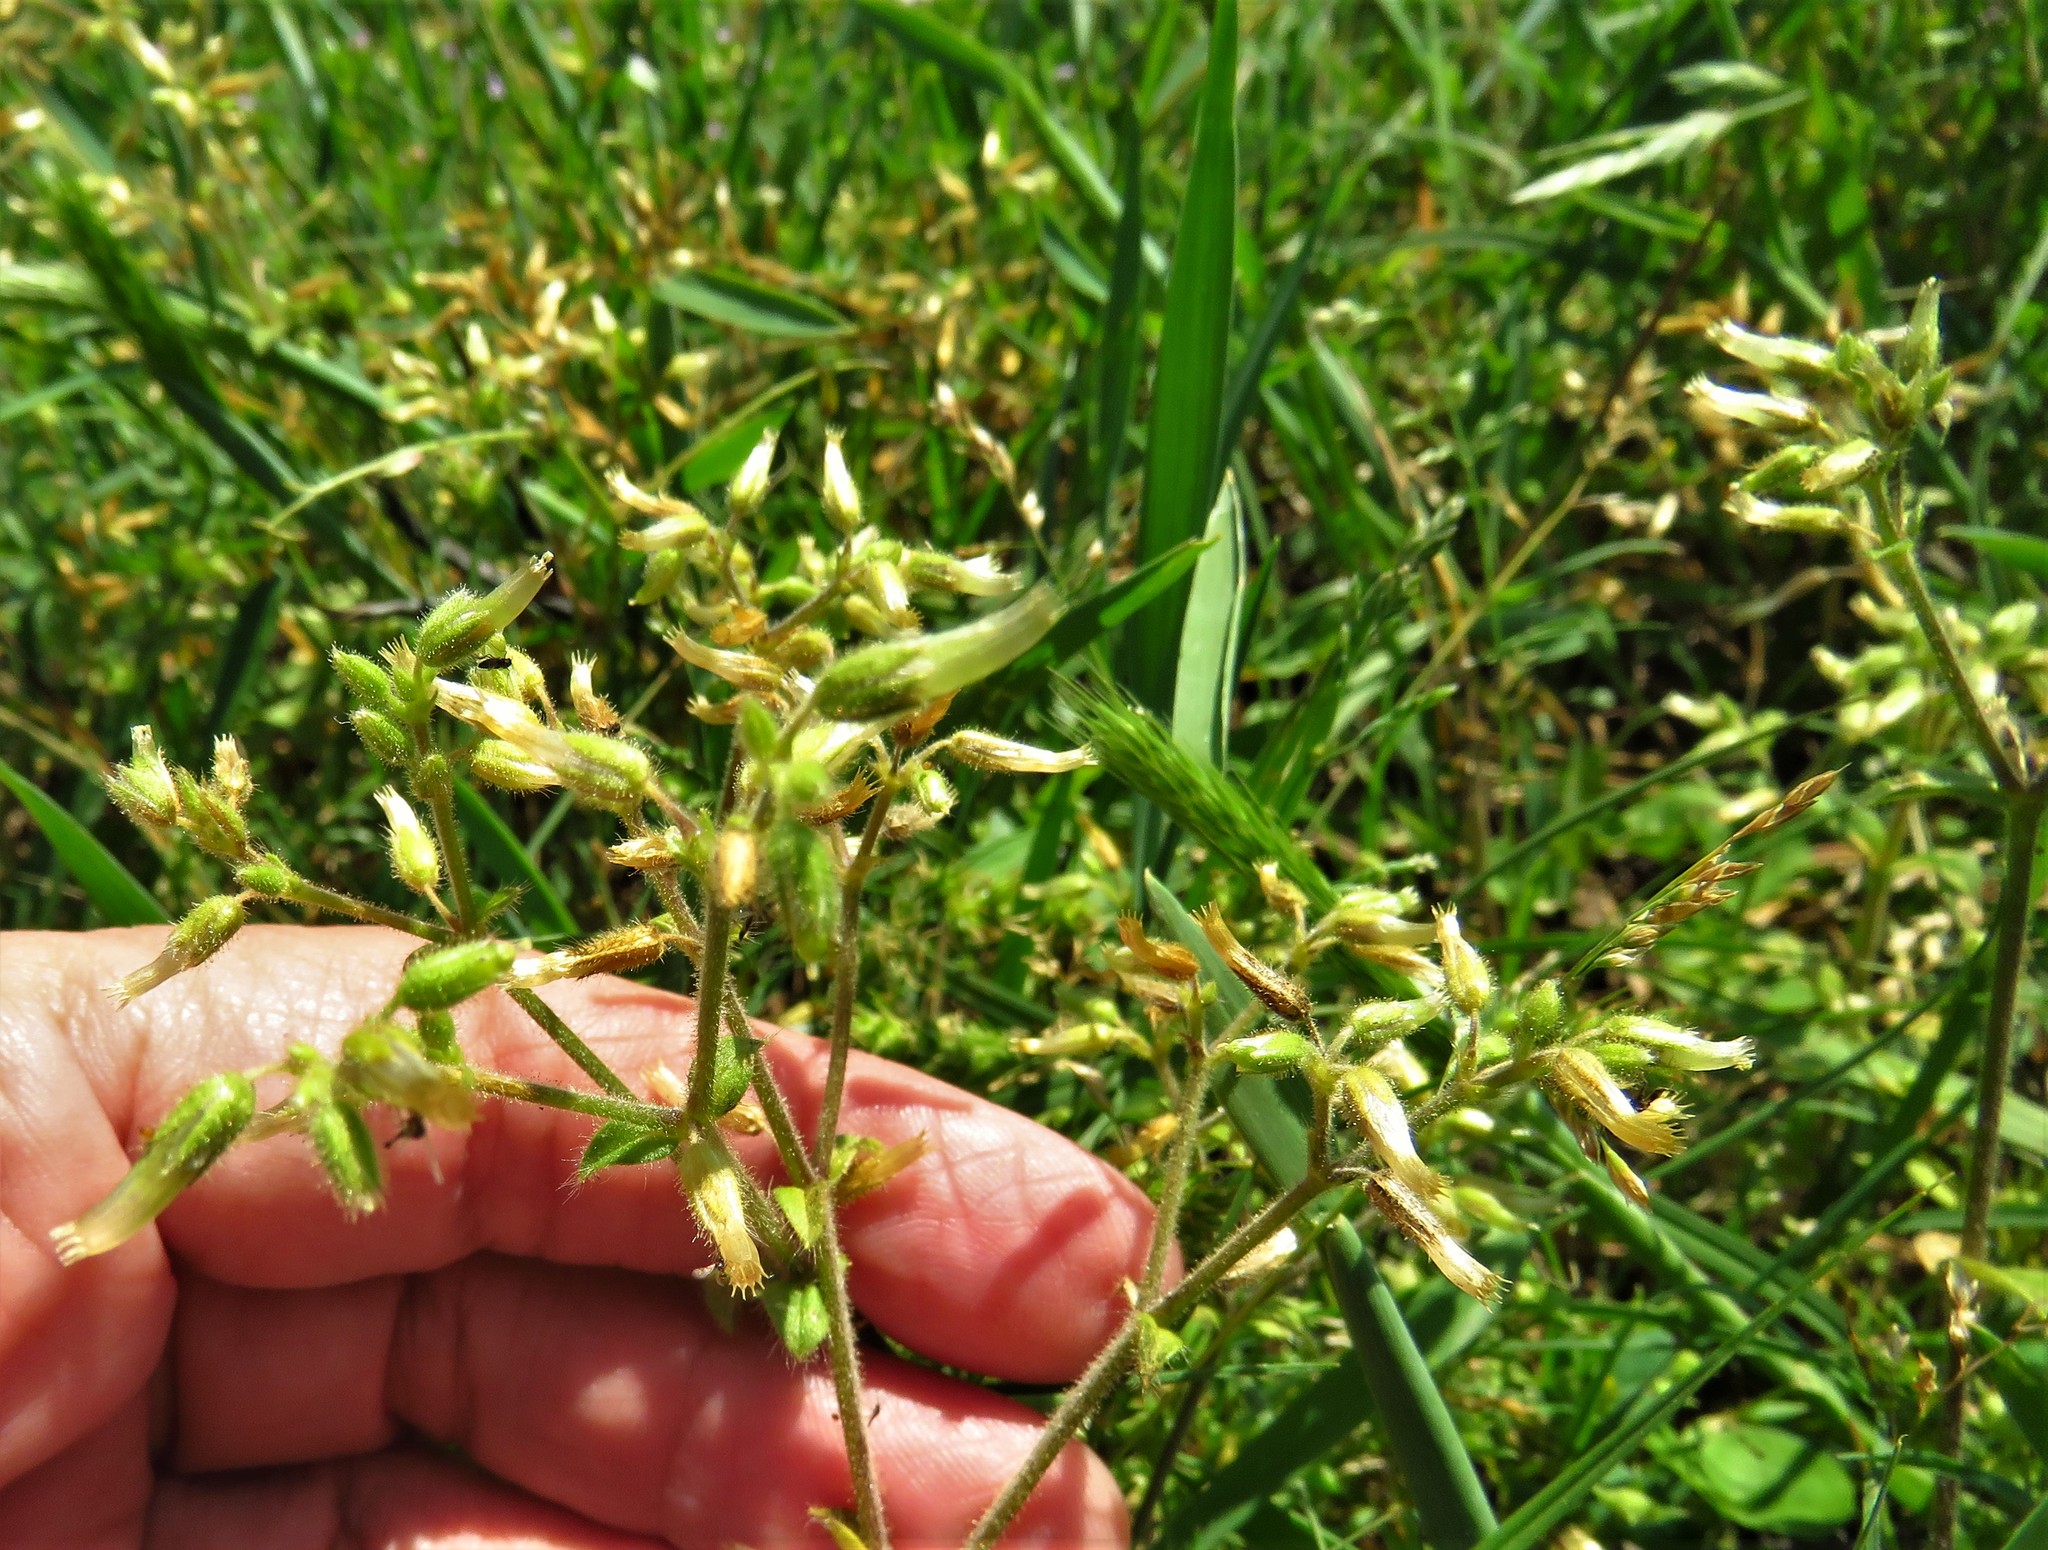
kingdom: Plantae
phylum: Tracheophyta
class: Magnoliopsida
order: Caryophyllales
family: Caryophyllaceae
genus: Cerastium
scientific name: Cerastium glomeratum
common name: Sticky chickweed
